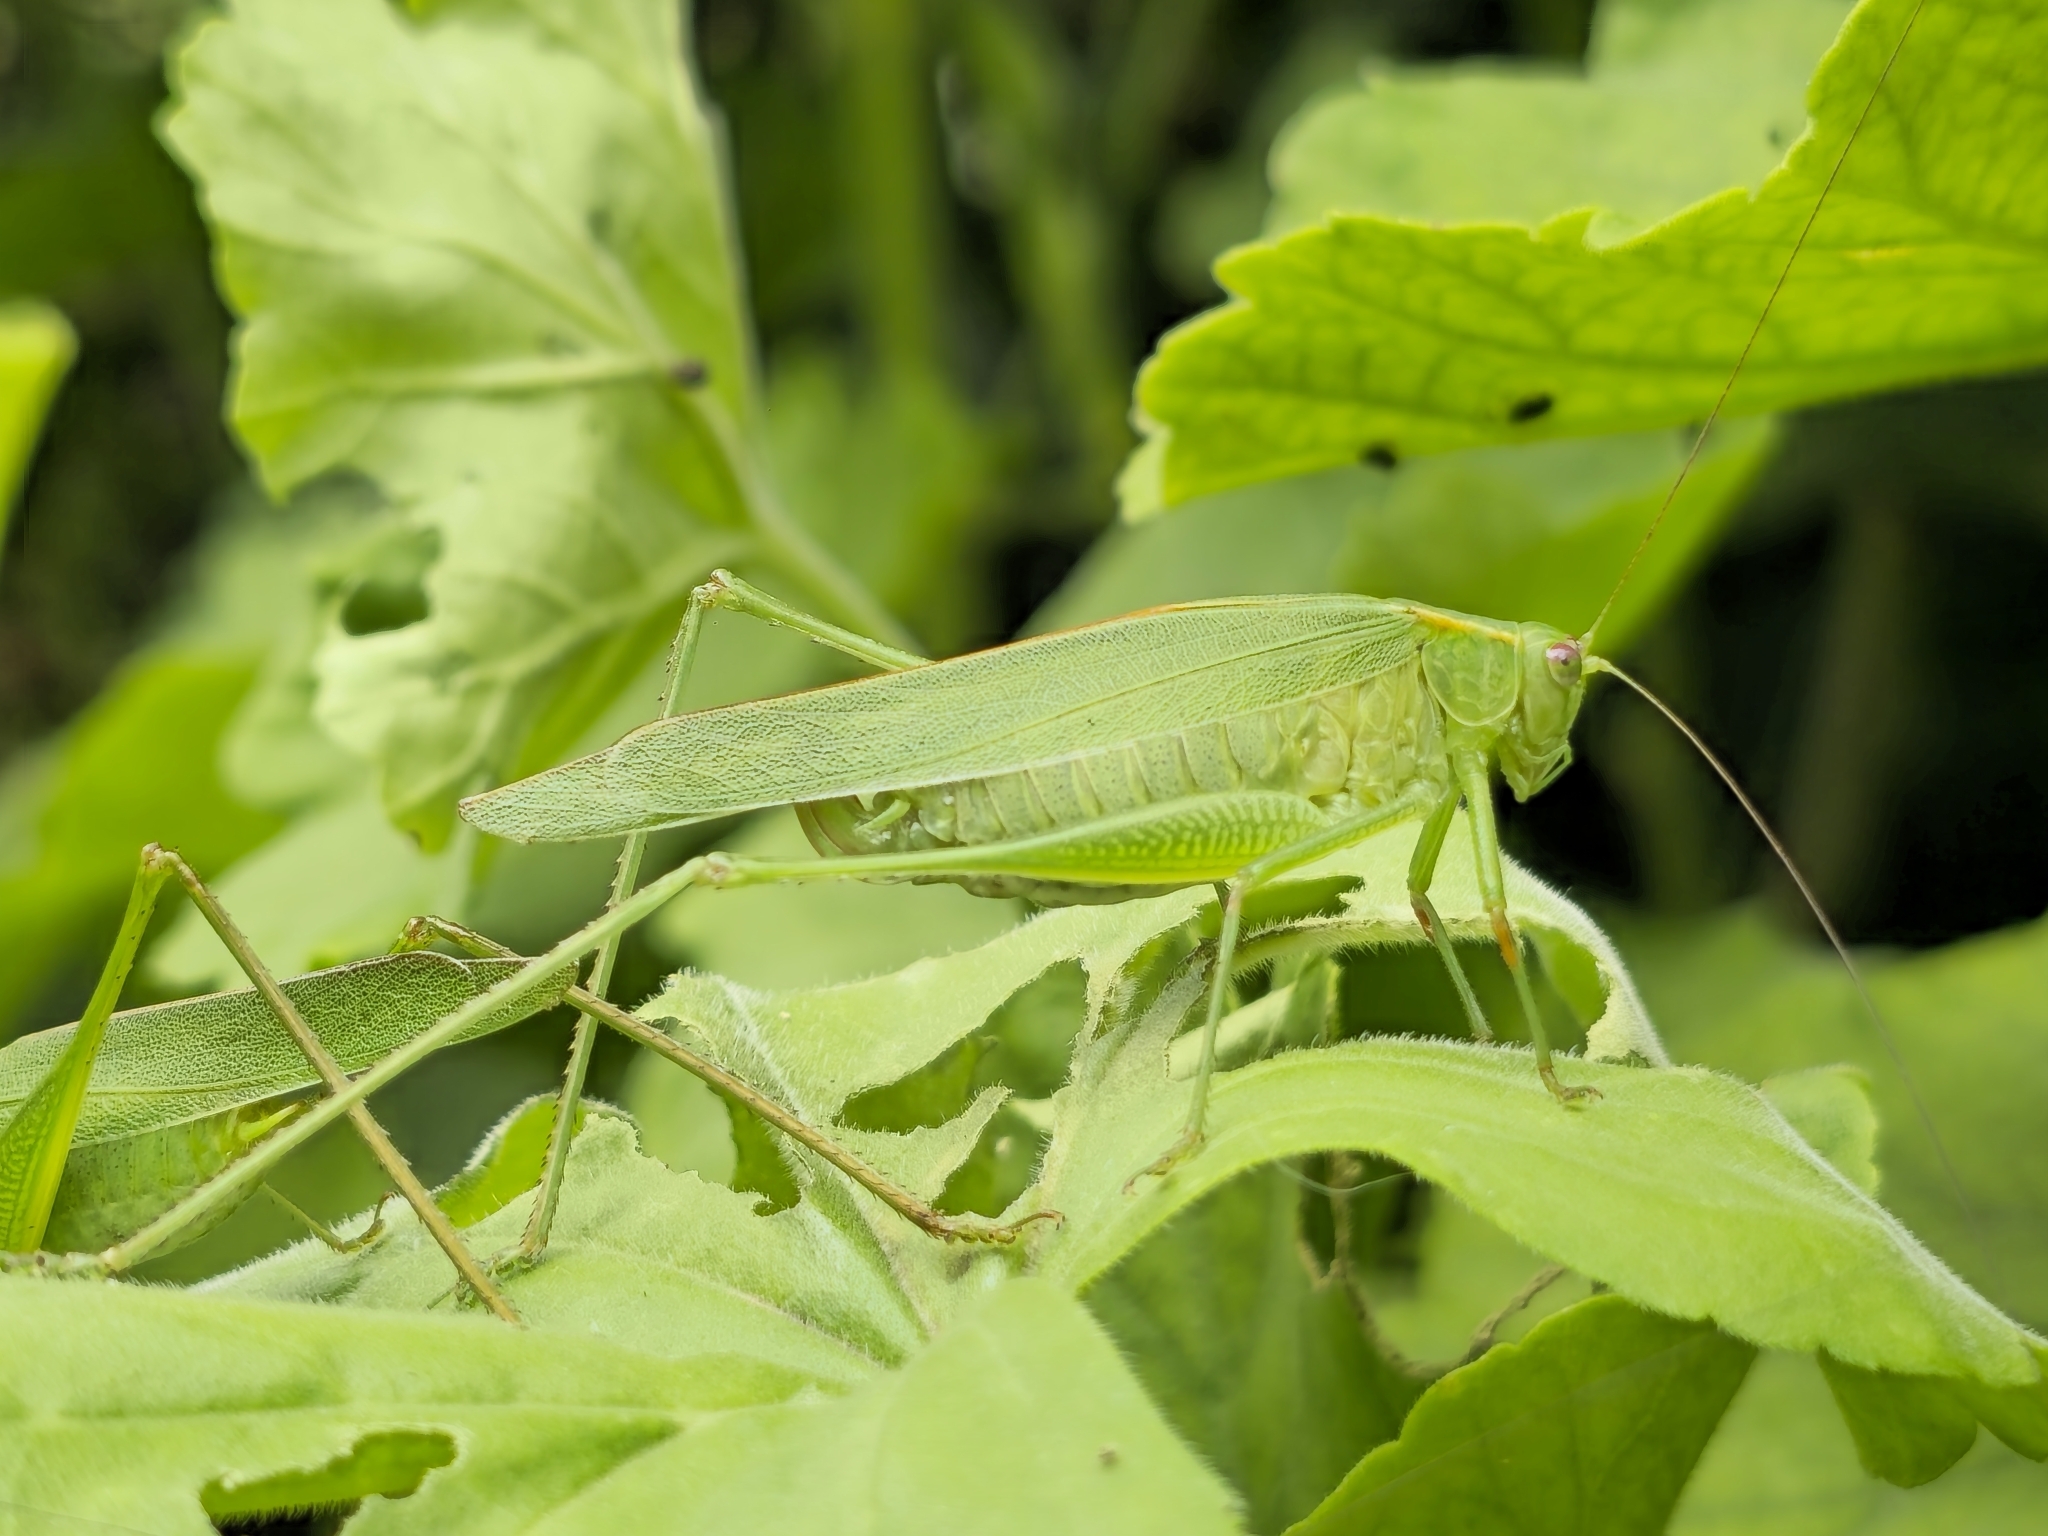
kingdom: Animalia
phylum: Arthropoda
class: Insecta
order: Orthoptera
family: Tettigoniidae
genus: Ligocatinus
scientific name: Ligocatinus spinatus
